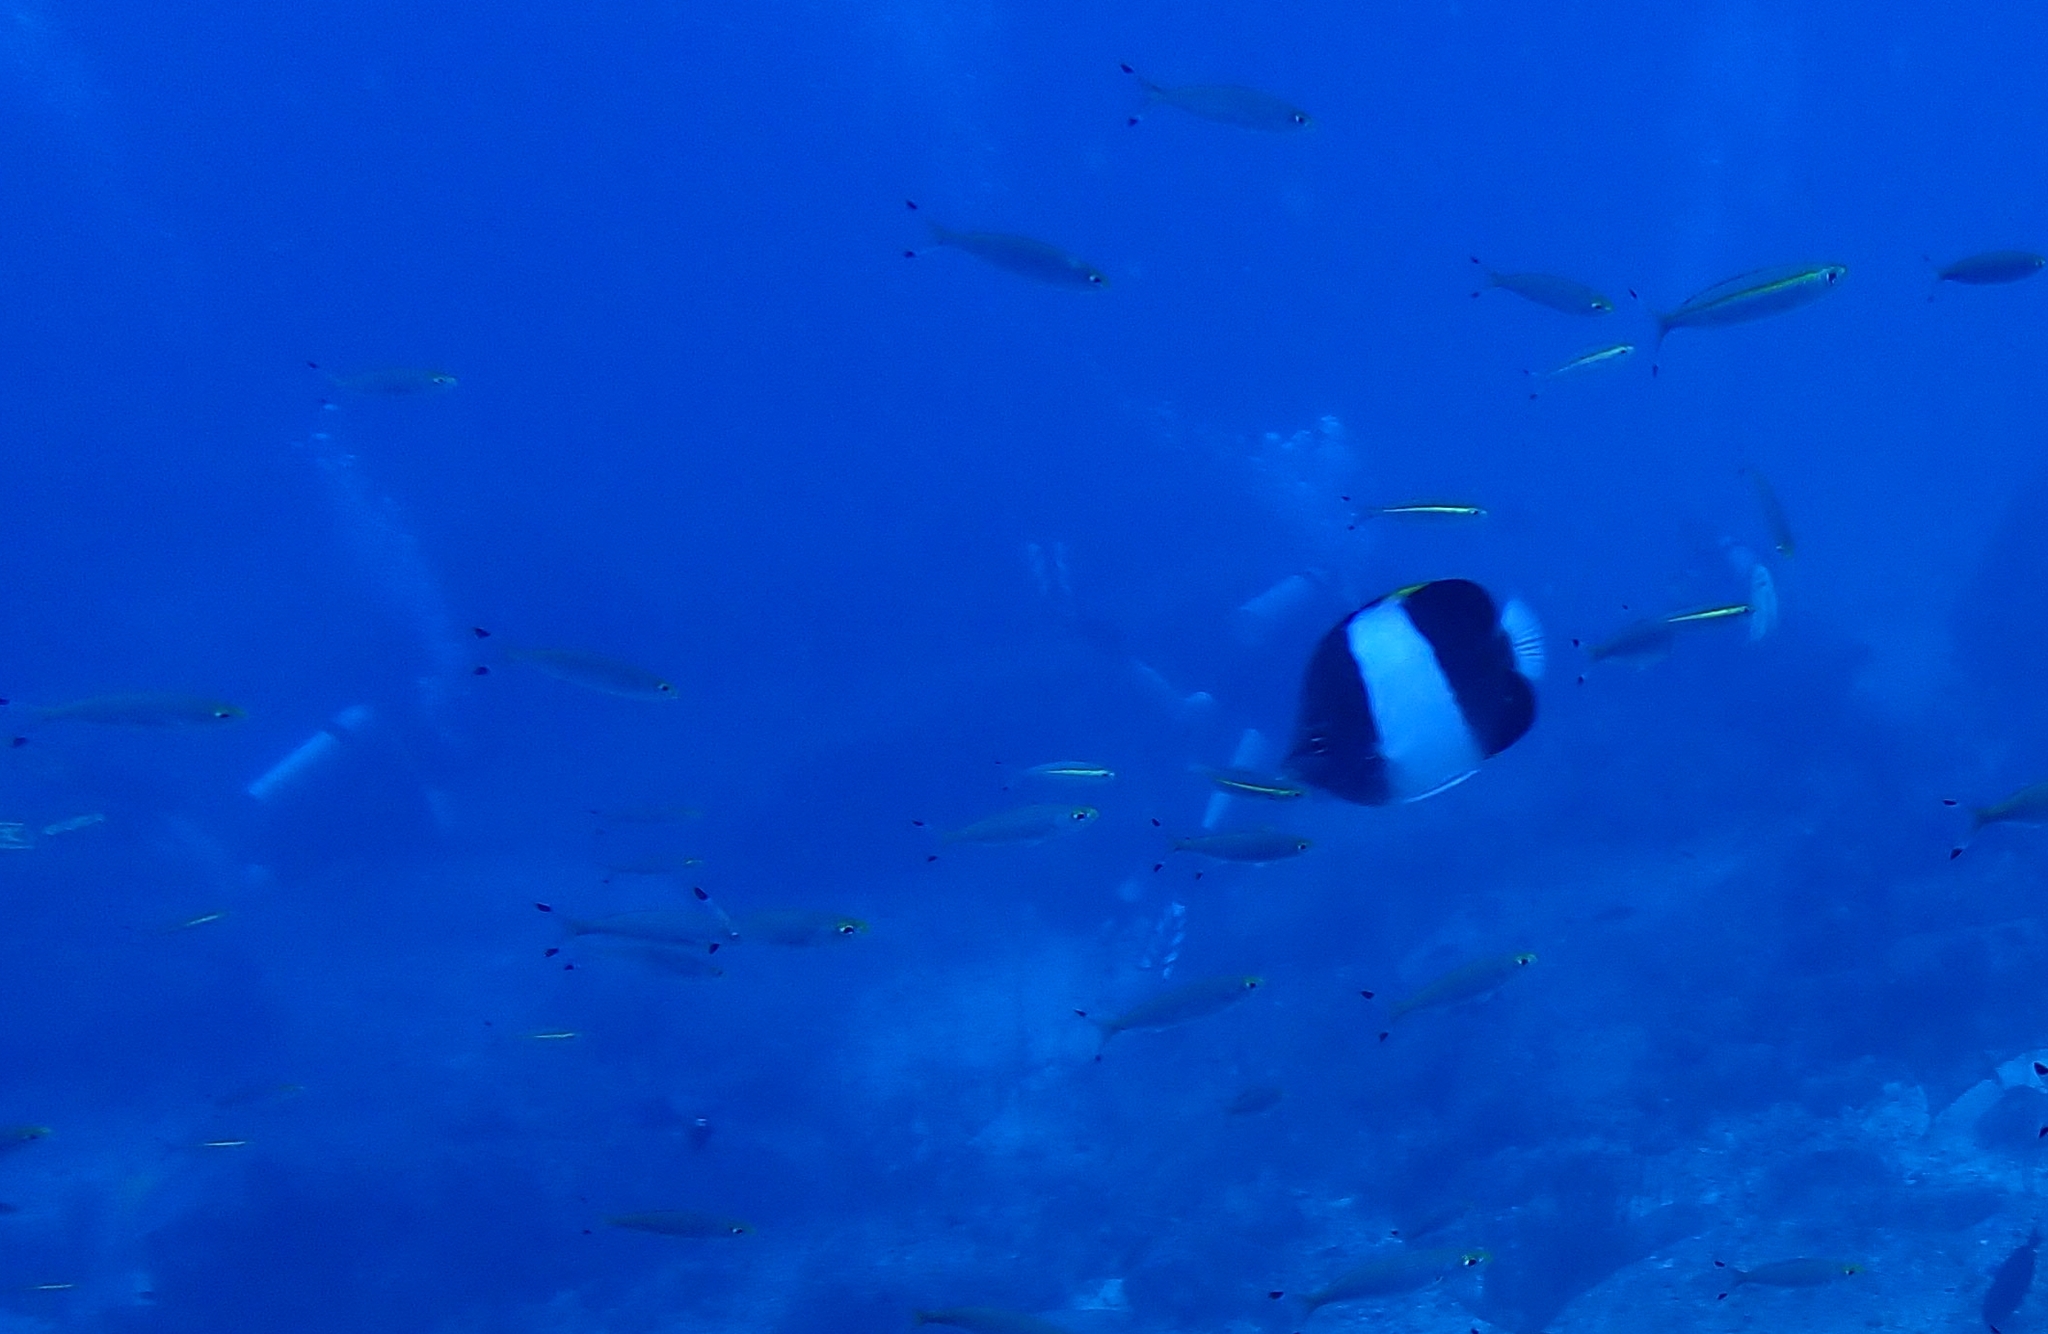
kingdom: Animalia
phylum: Chordata
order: Perciformes
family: Chaetodontidae
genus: Hemitaurichthys
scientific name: Hemitaurichthys zoster
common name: Brown-and-white butterflyfish
